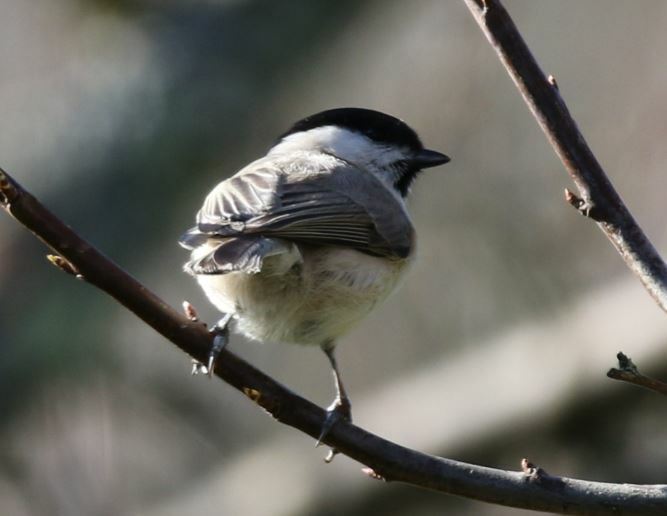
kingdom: Animalia
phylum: Chordata
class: Aves
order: Passeriformes
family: Paridae
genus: Poecile
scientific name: Poecile palustris
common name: Marsh tit
